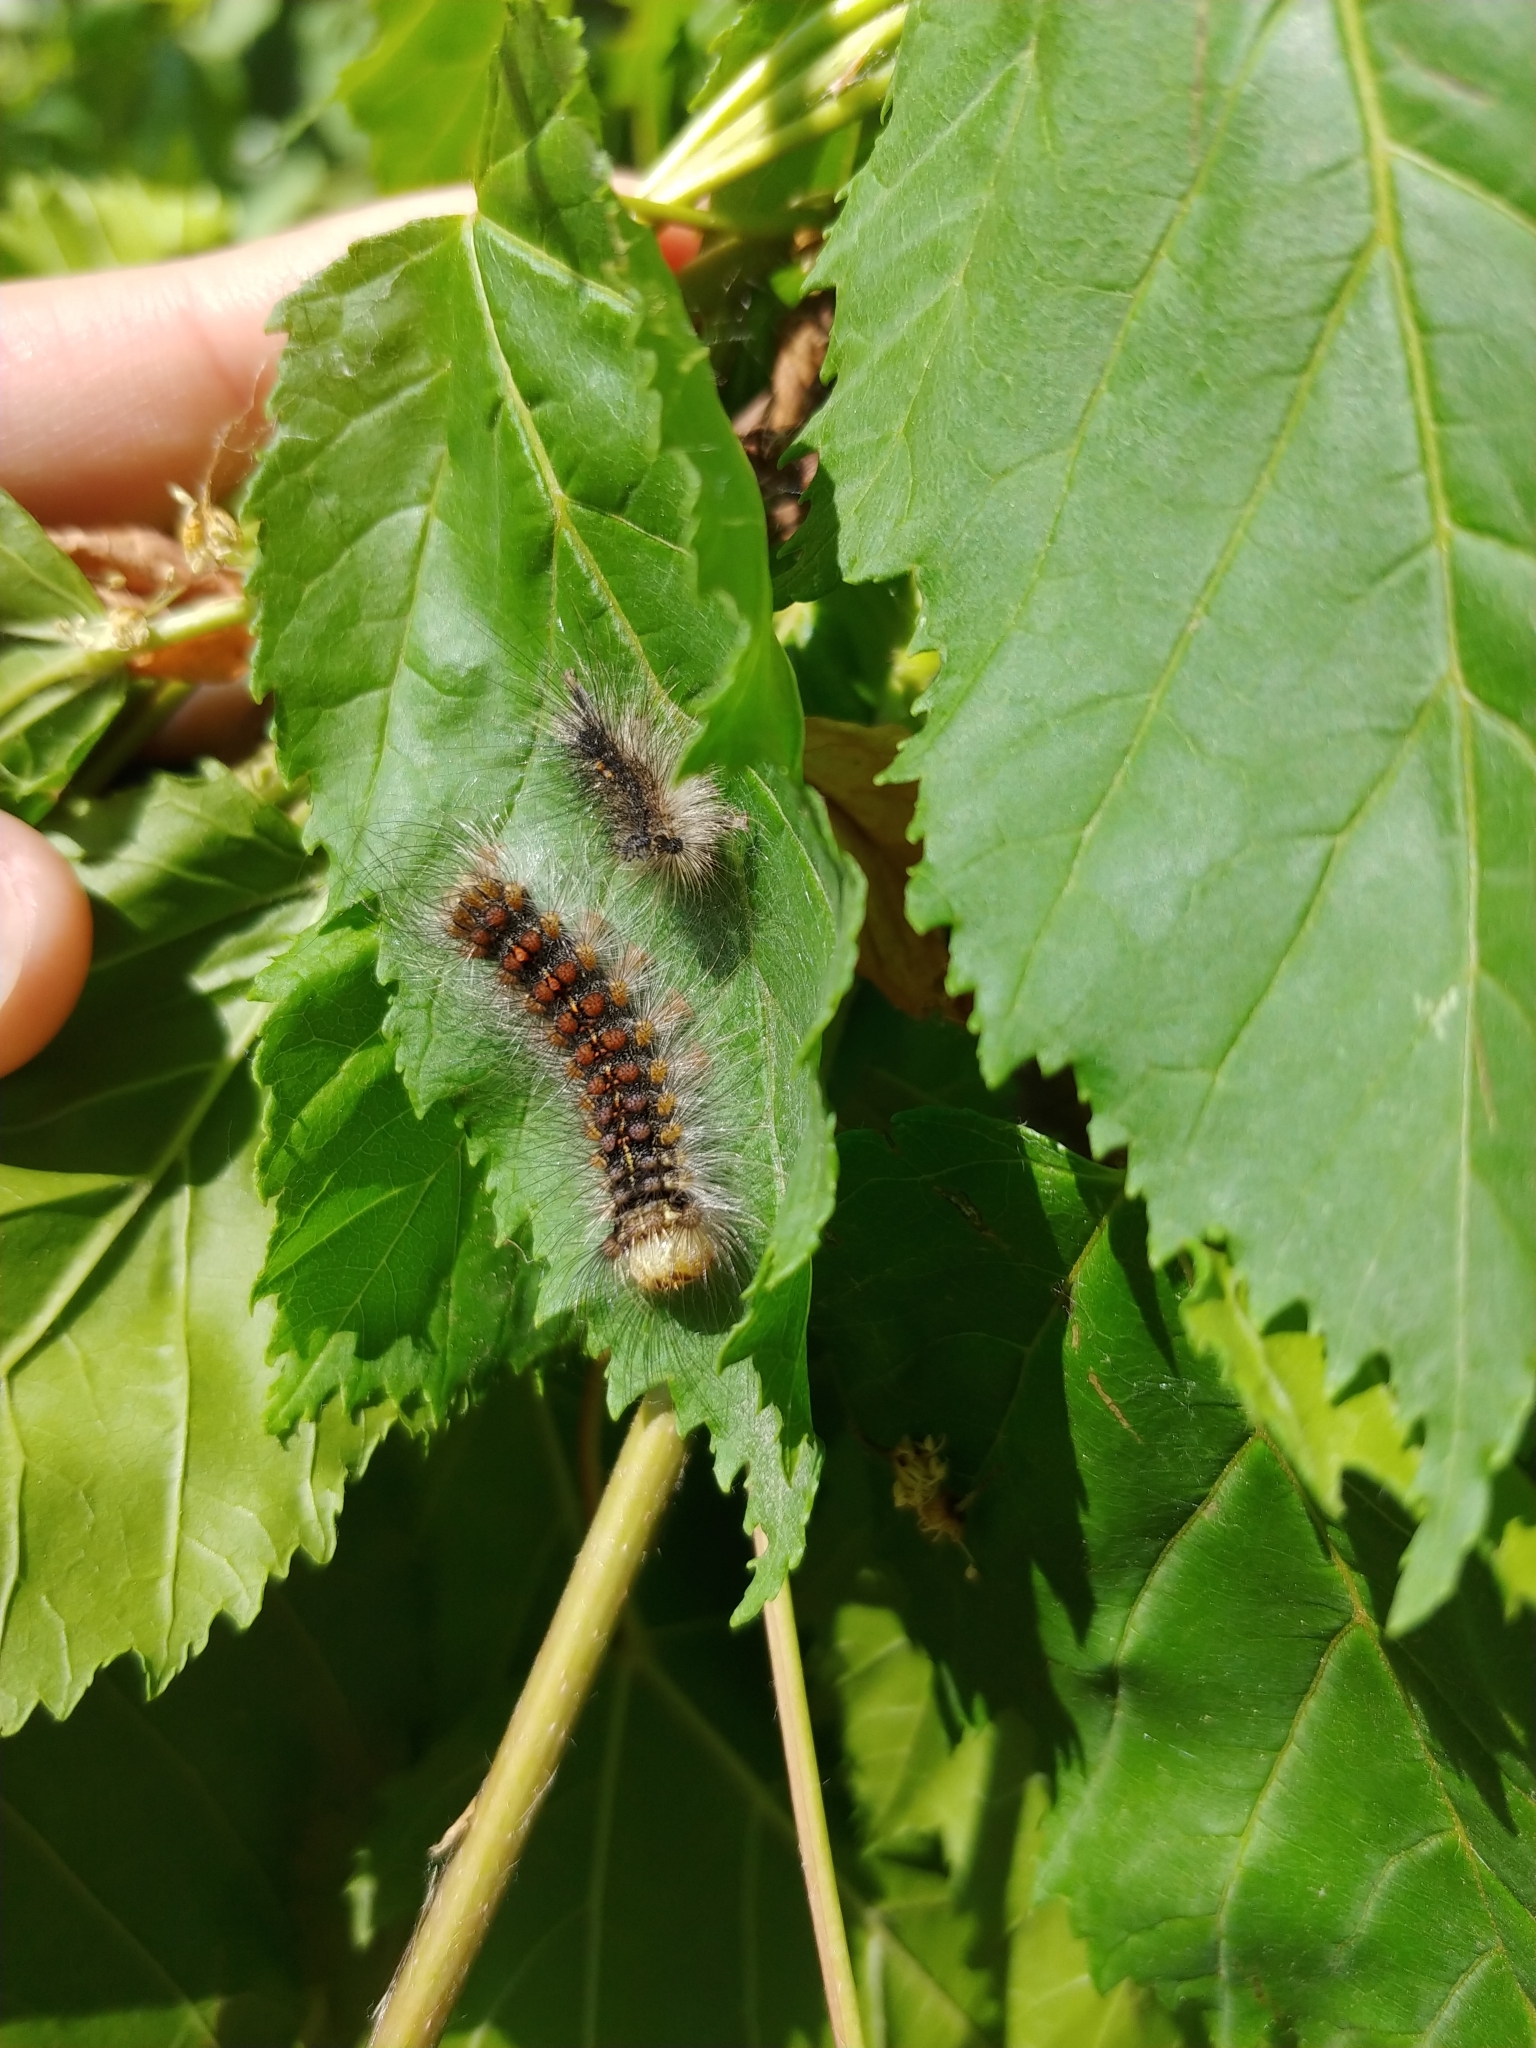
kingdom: Animalia
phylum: Arthropoda
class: Insecta
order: Lepidoptera
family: Erebidae
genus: Lymantria
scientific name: Lymantria dispar
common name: Gypsy moth
